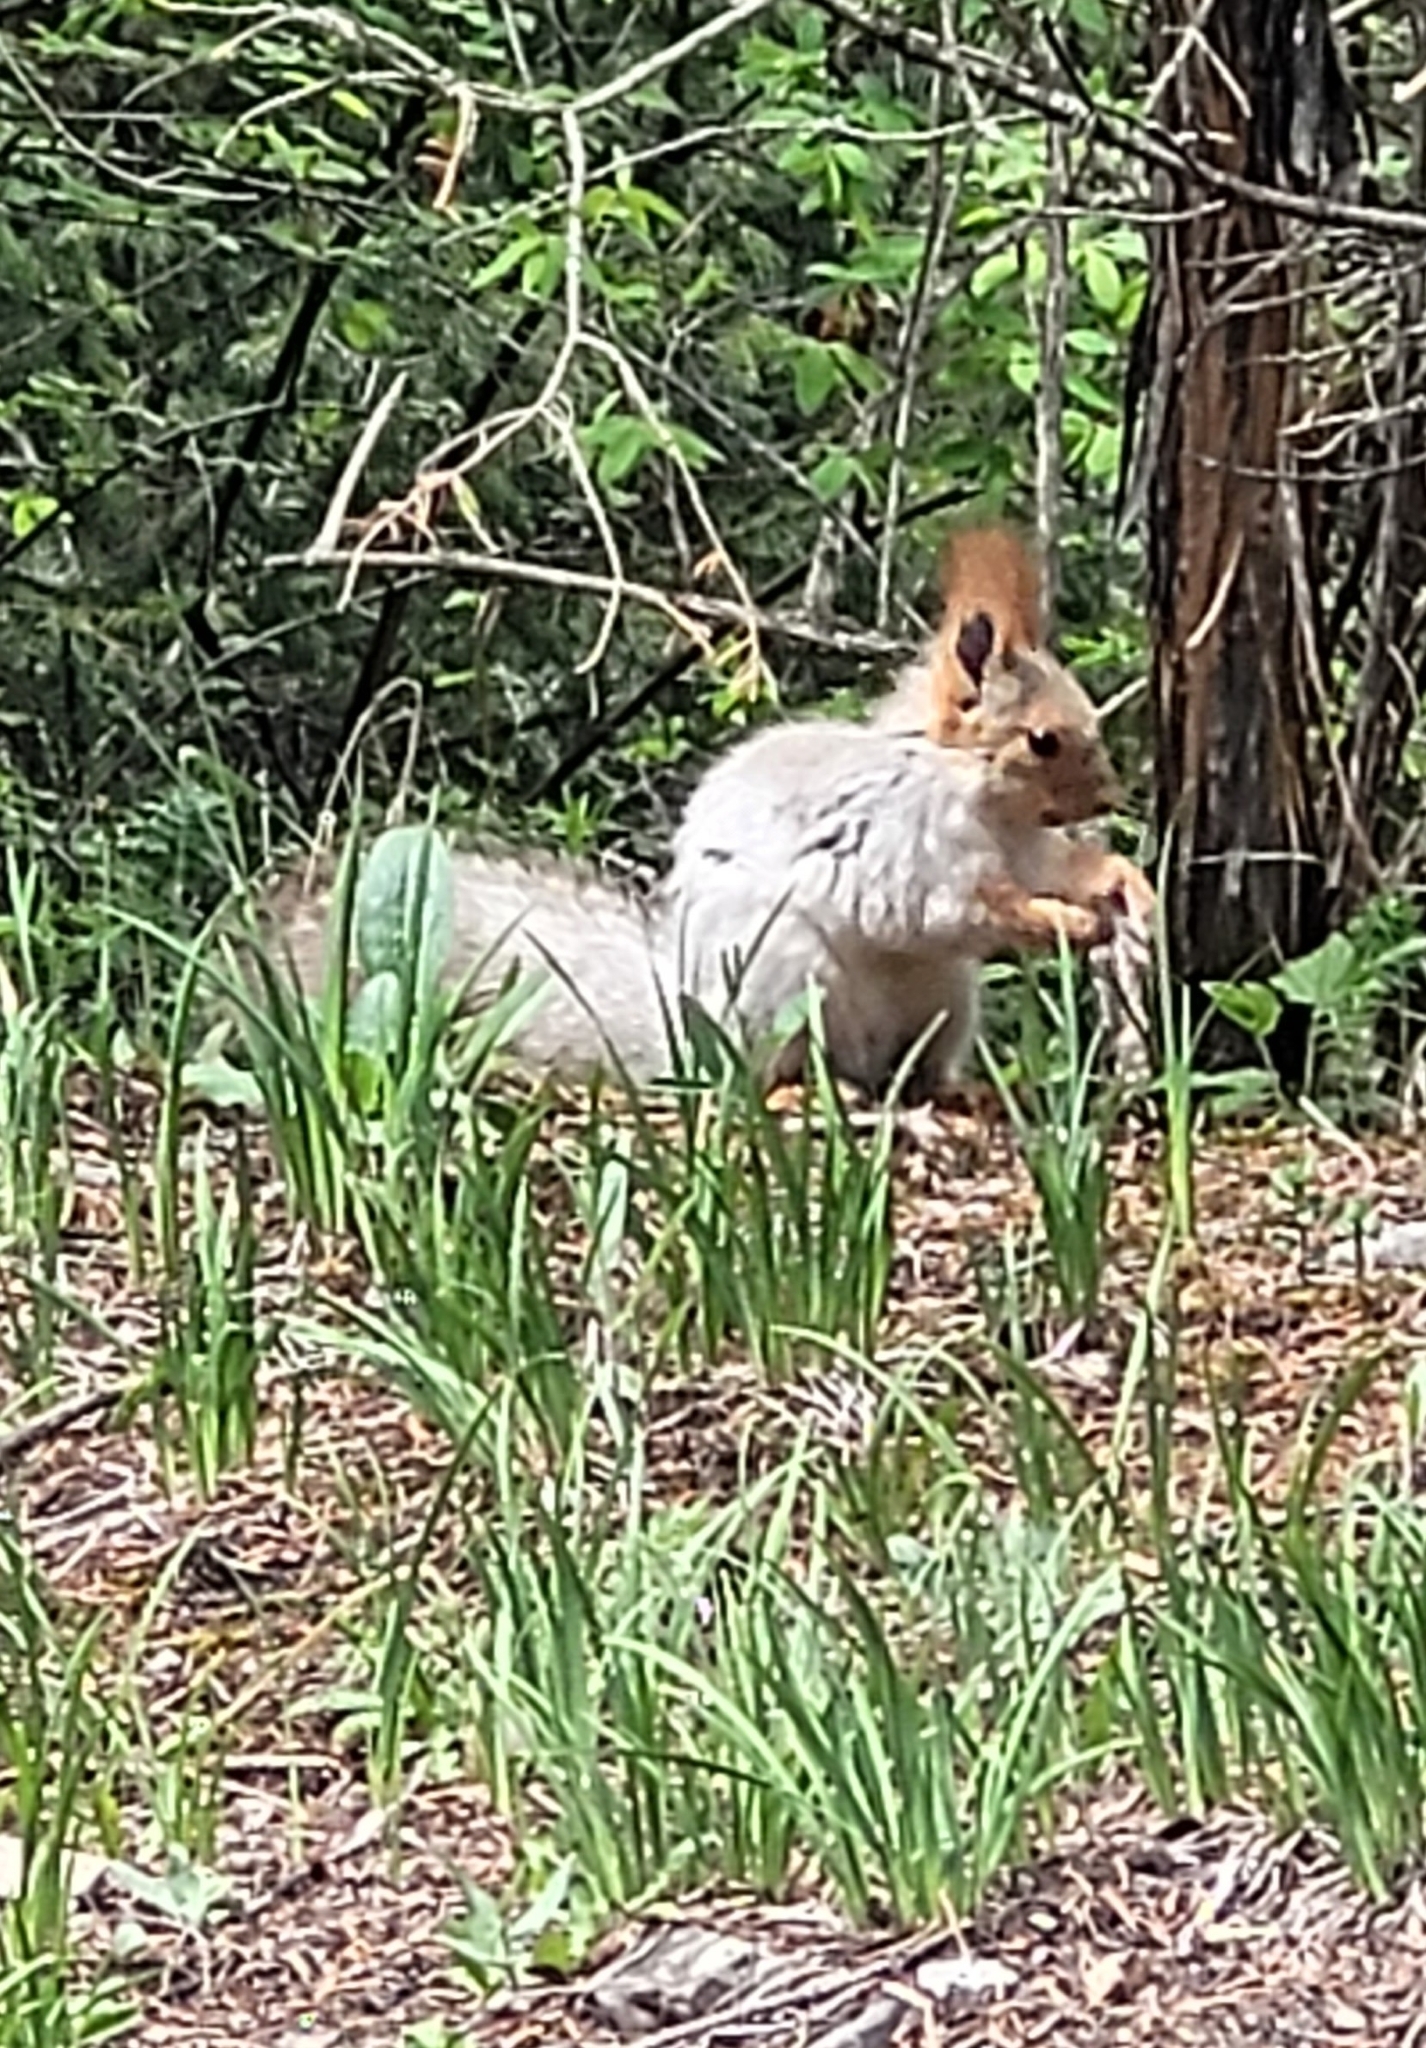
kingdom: Animalia
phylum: Chordata
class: Mammalia
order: Rodentia
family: Sciuridae
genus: Sciurus
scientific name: Sciurus vulgaris
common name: Eurasian red squirrel
